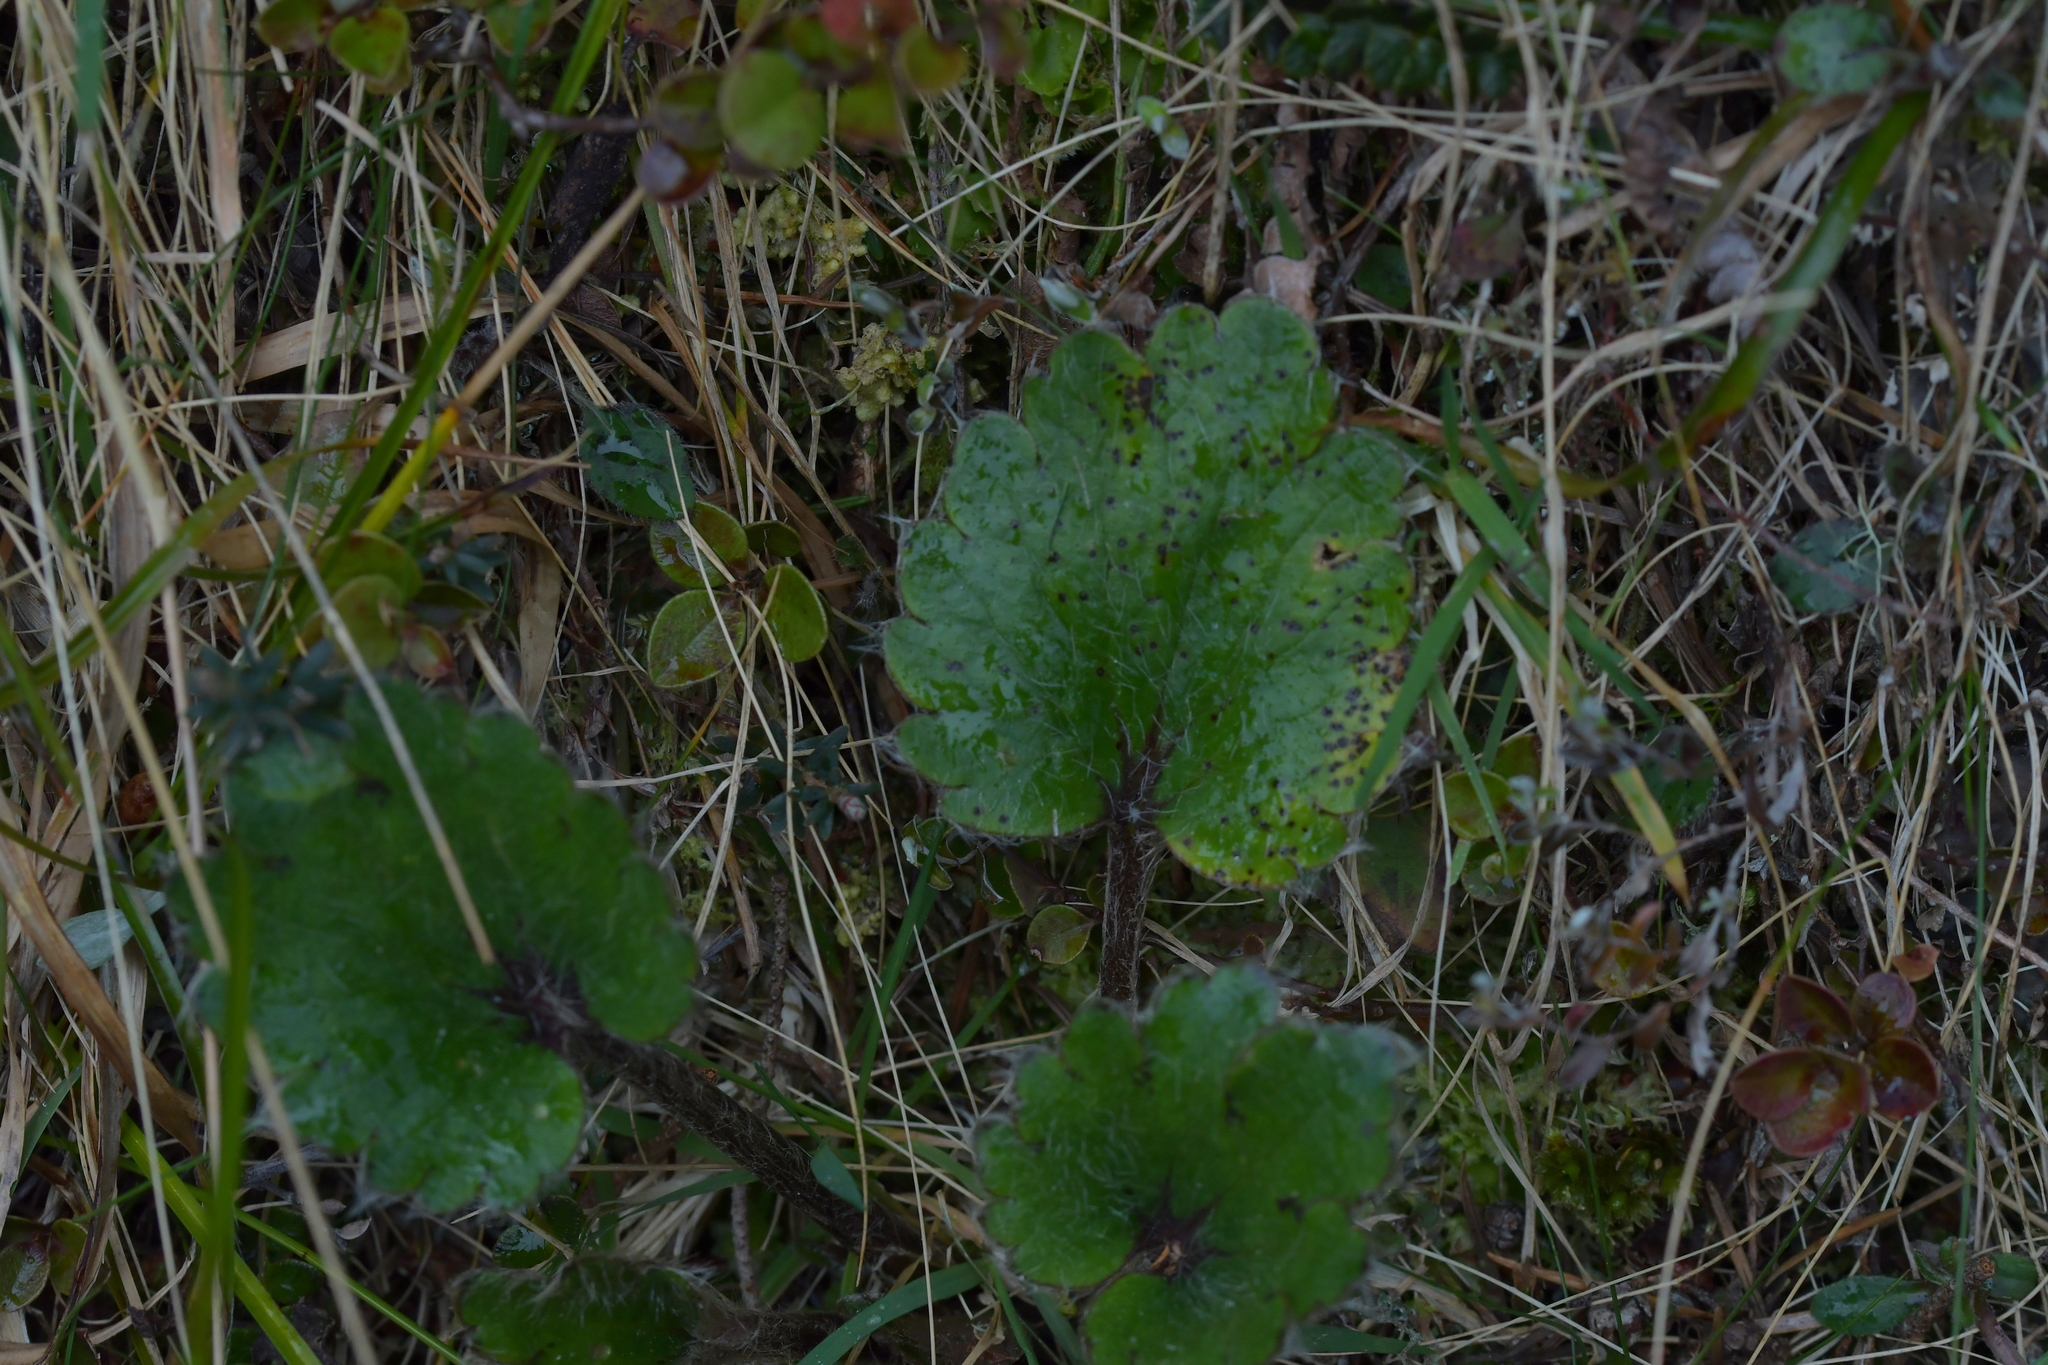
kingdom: Plantae
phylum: Tracheophyta
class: Magnoliopsida
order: Ranunculales
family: Ranunculaceae
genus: Ranunculus
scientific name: Ranunculus insignis
